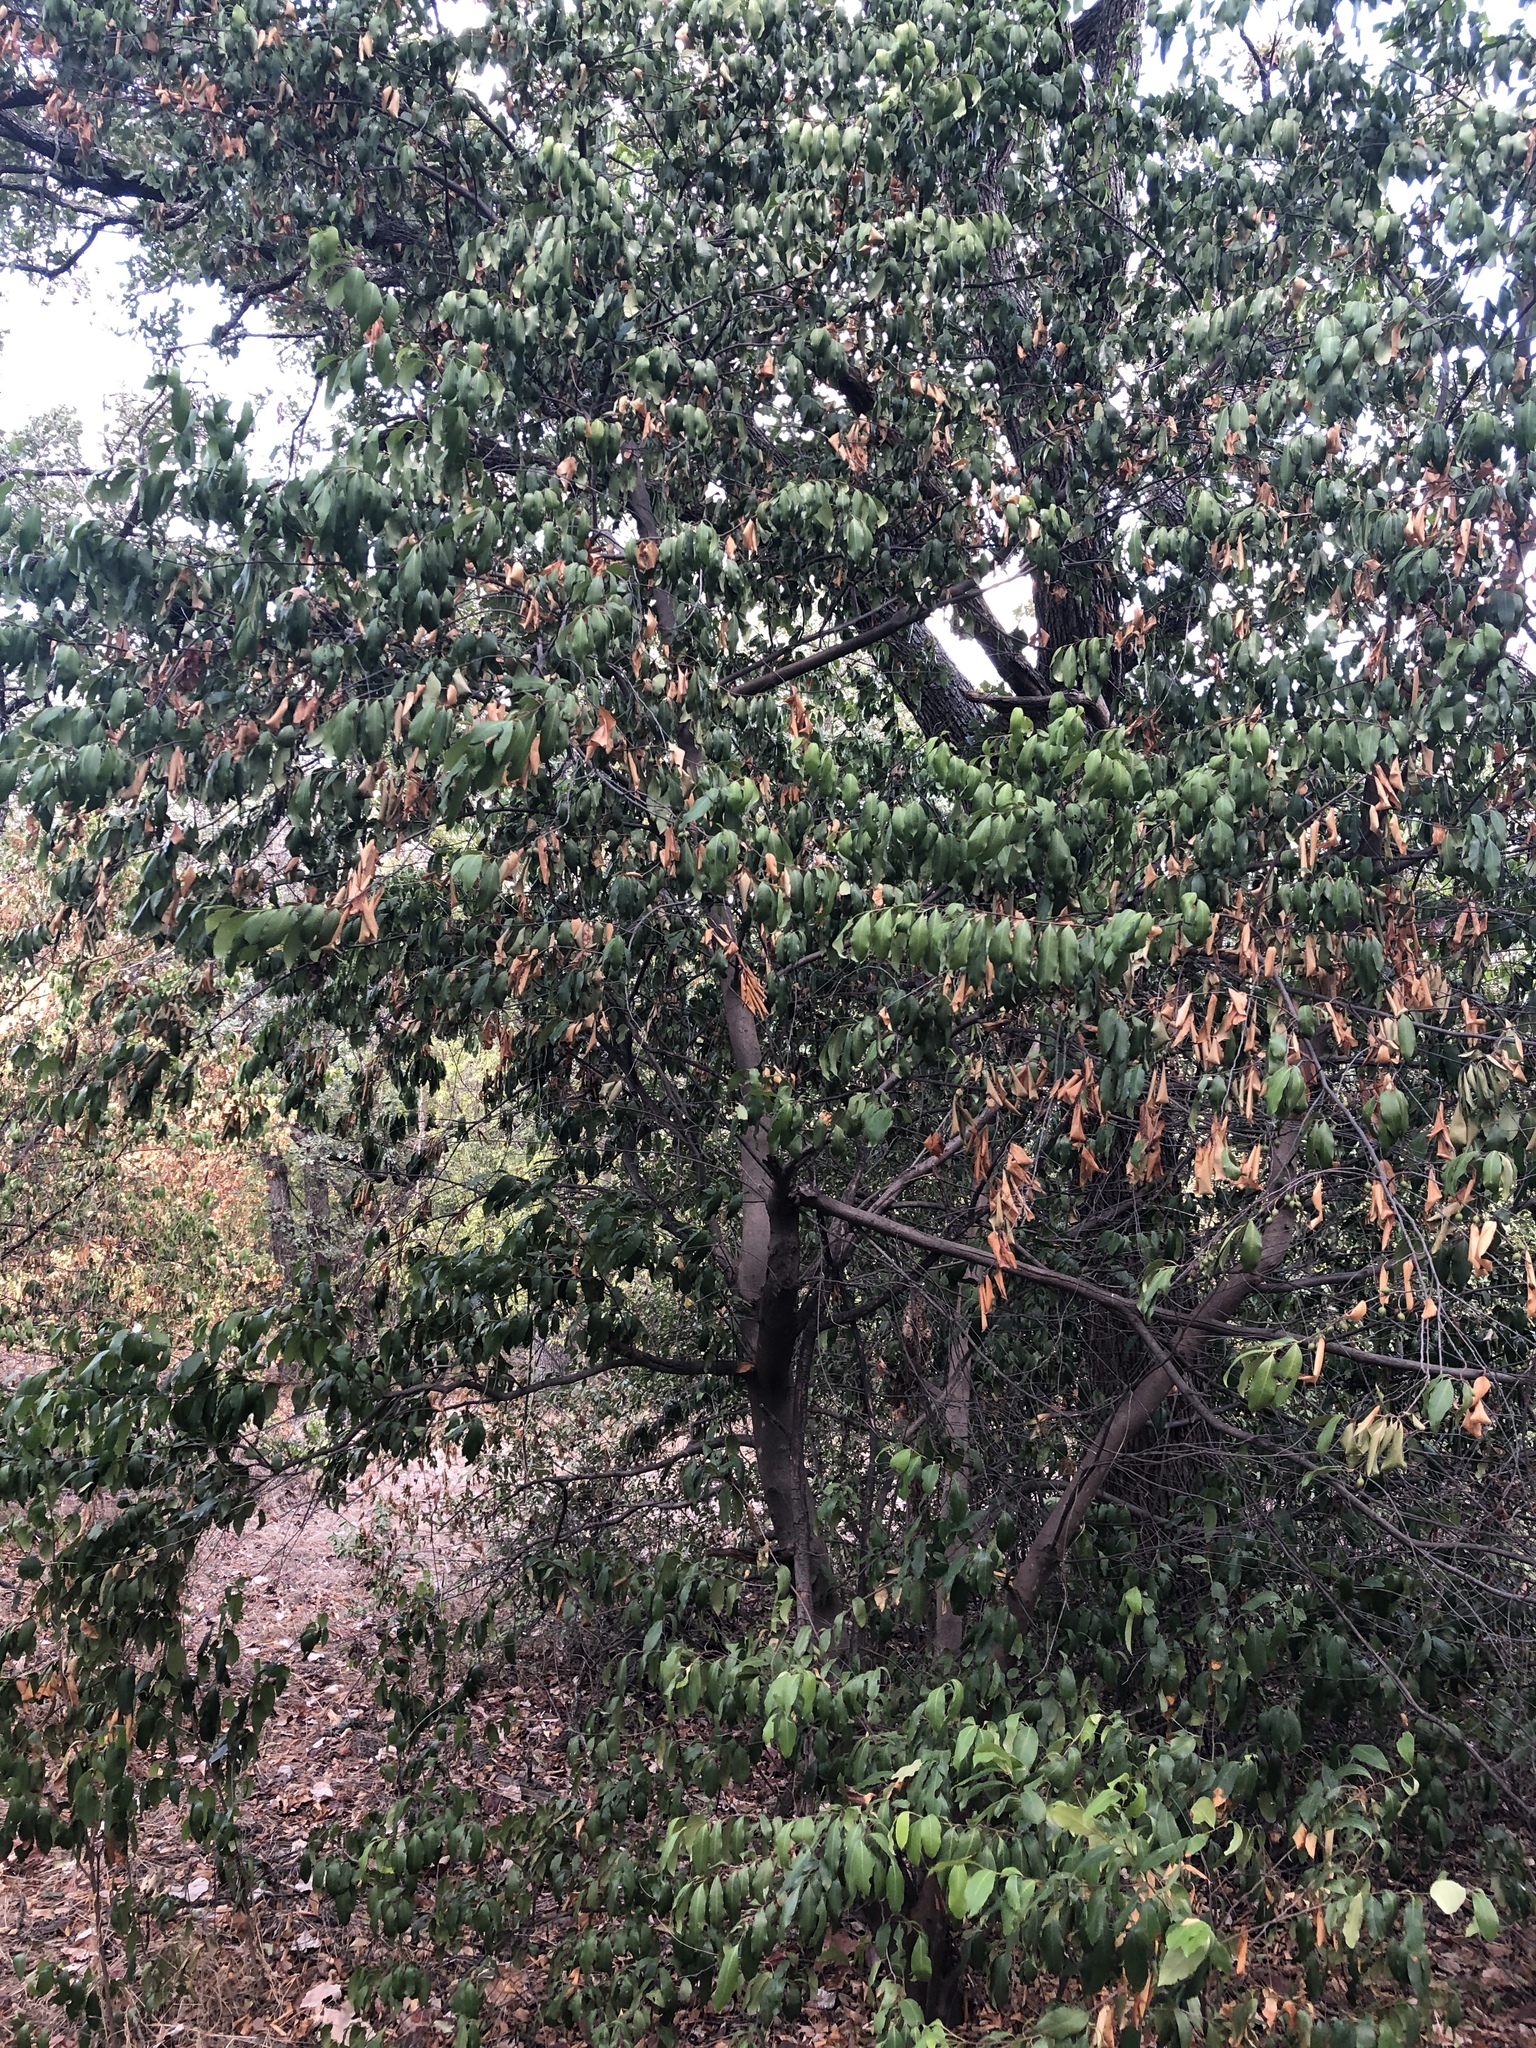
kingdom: Plantae
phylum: Tracheophyta
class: Magnoliopsida
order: Rosales
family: Rosaceae
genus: Prunus
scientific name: Prunus caroliniana
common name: Carolina laurel cherry
